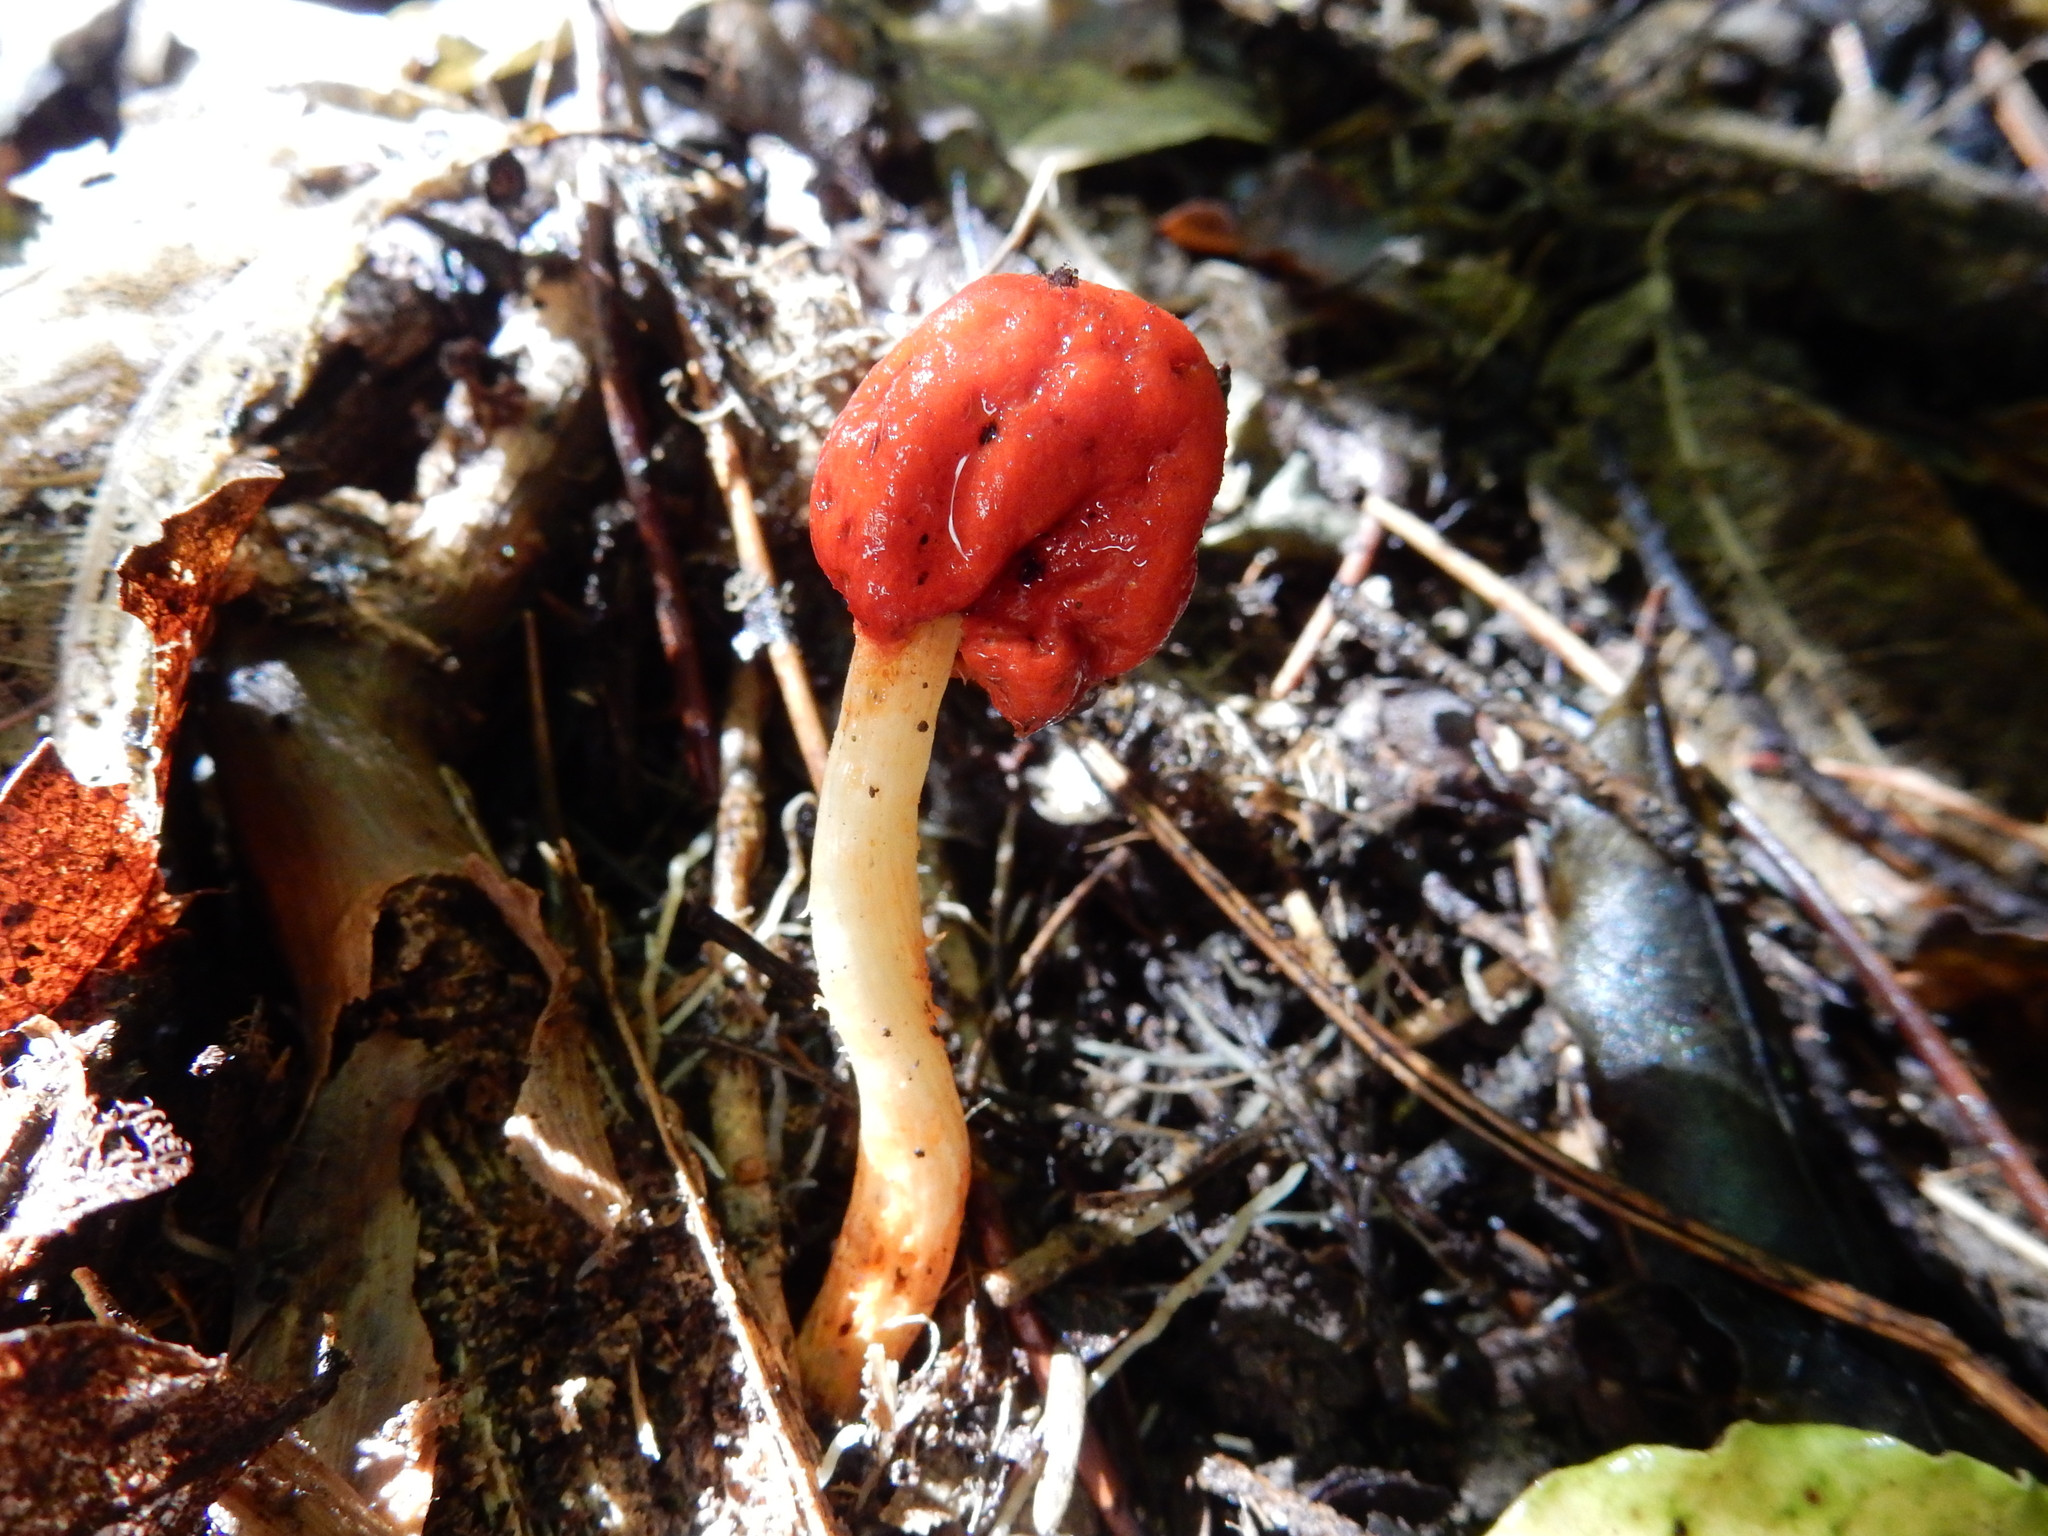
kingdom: Fungi
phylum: Basidiomycota
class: Agaricomycetes
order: Agaricales
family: Strophariaceae
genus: Leratiomyces
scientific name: Leratiomyces erythrocephalus
